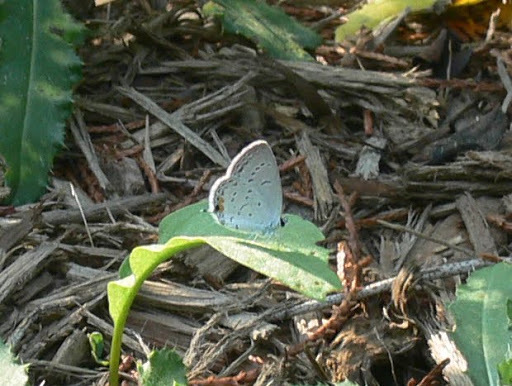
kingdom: Animalia
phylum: Arthropoda
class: Insecta
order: Lepidoptera
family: Lycaenidae
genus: Elkalyce
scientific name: Elkalyce comyntas
